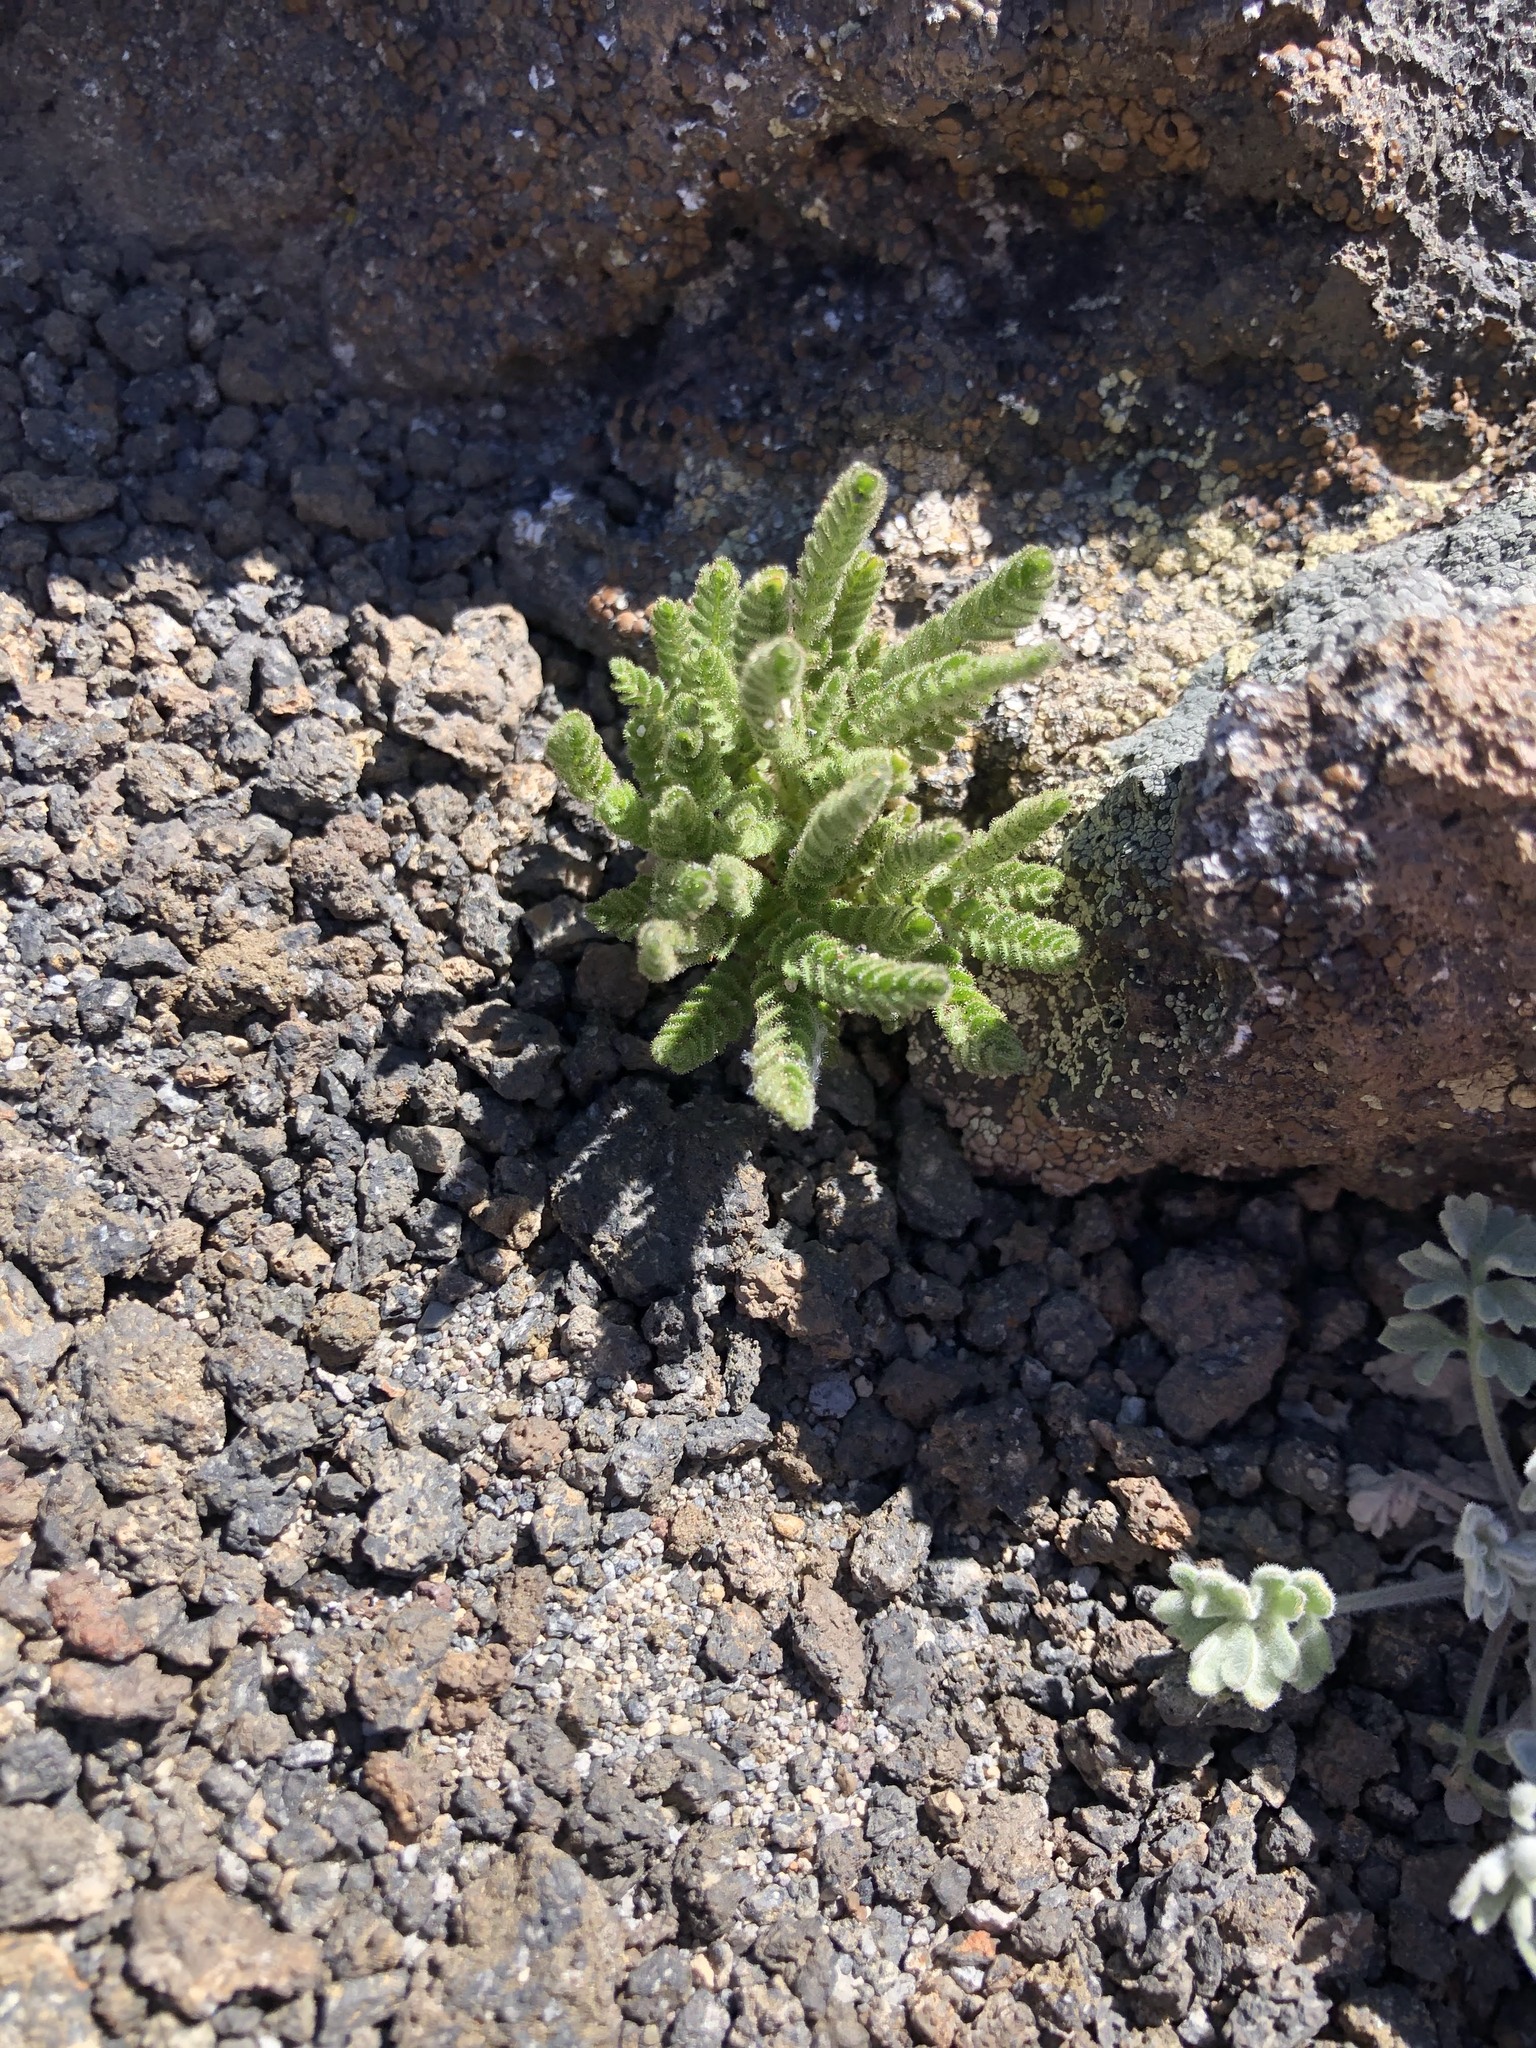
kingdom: Plantae
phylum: Tracheophyta
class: Magnoliopsida
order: Ericales
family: Polemoniaceae
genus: Polemonium
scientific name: Polemonium elegans
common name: Elegant jacob's-ladder
